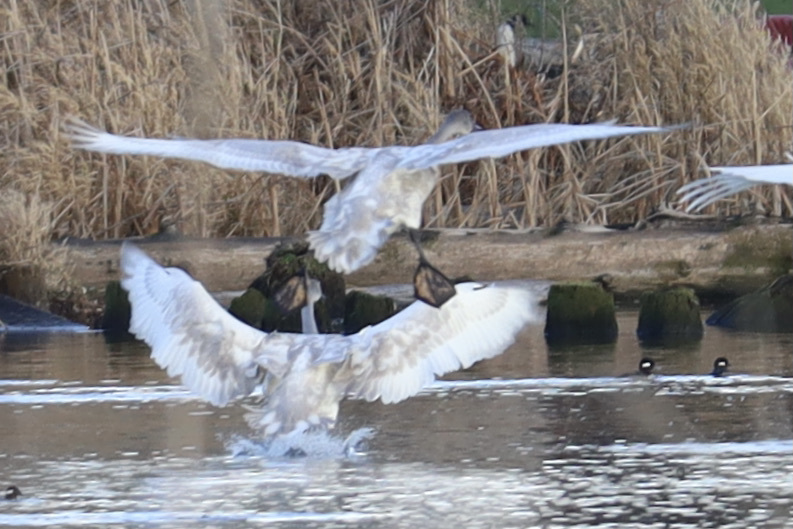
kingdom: Animalia
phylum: Chordata
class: Aves
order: Anseriformes
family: Anatidae
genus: Cygnus
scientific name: Cygnus buccinator
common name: Trumpeter swan
